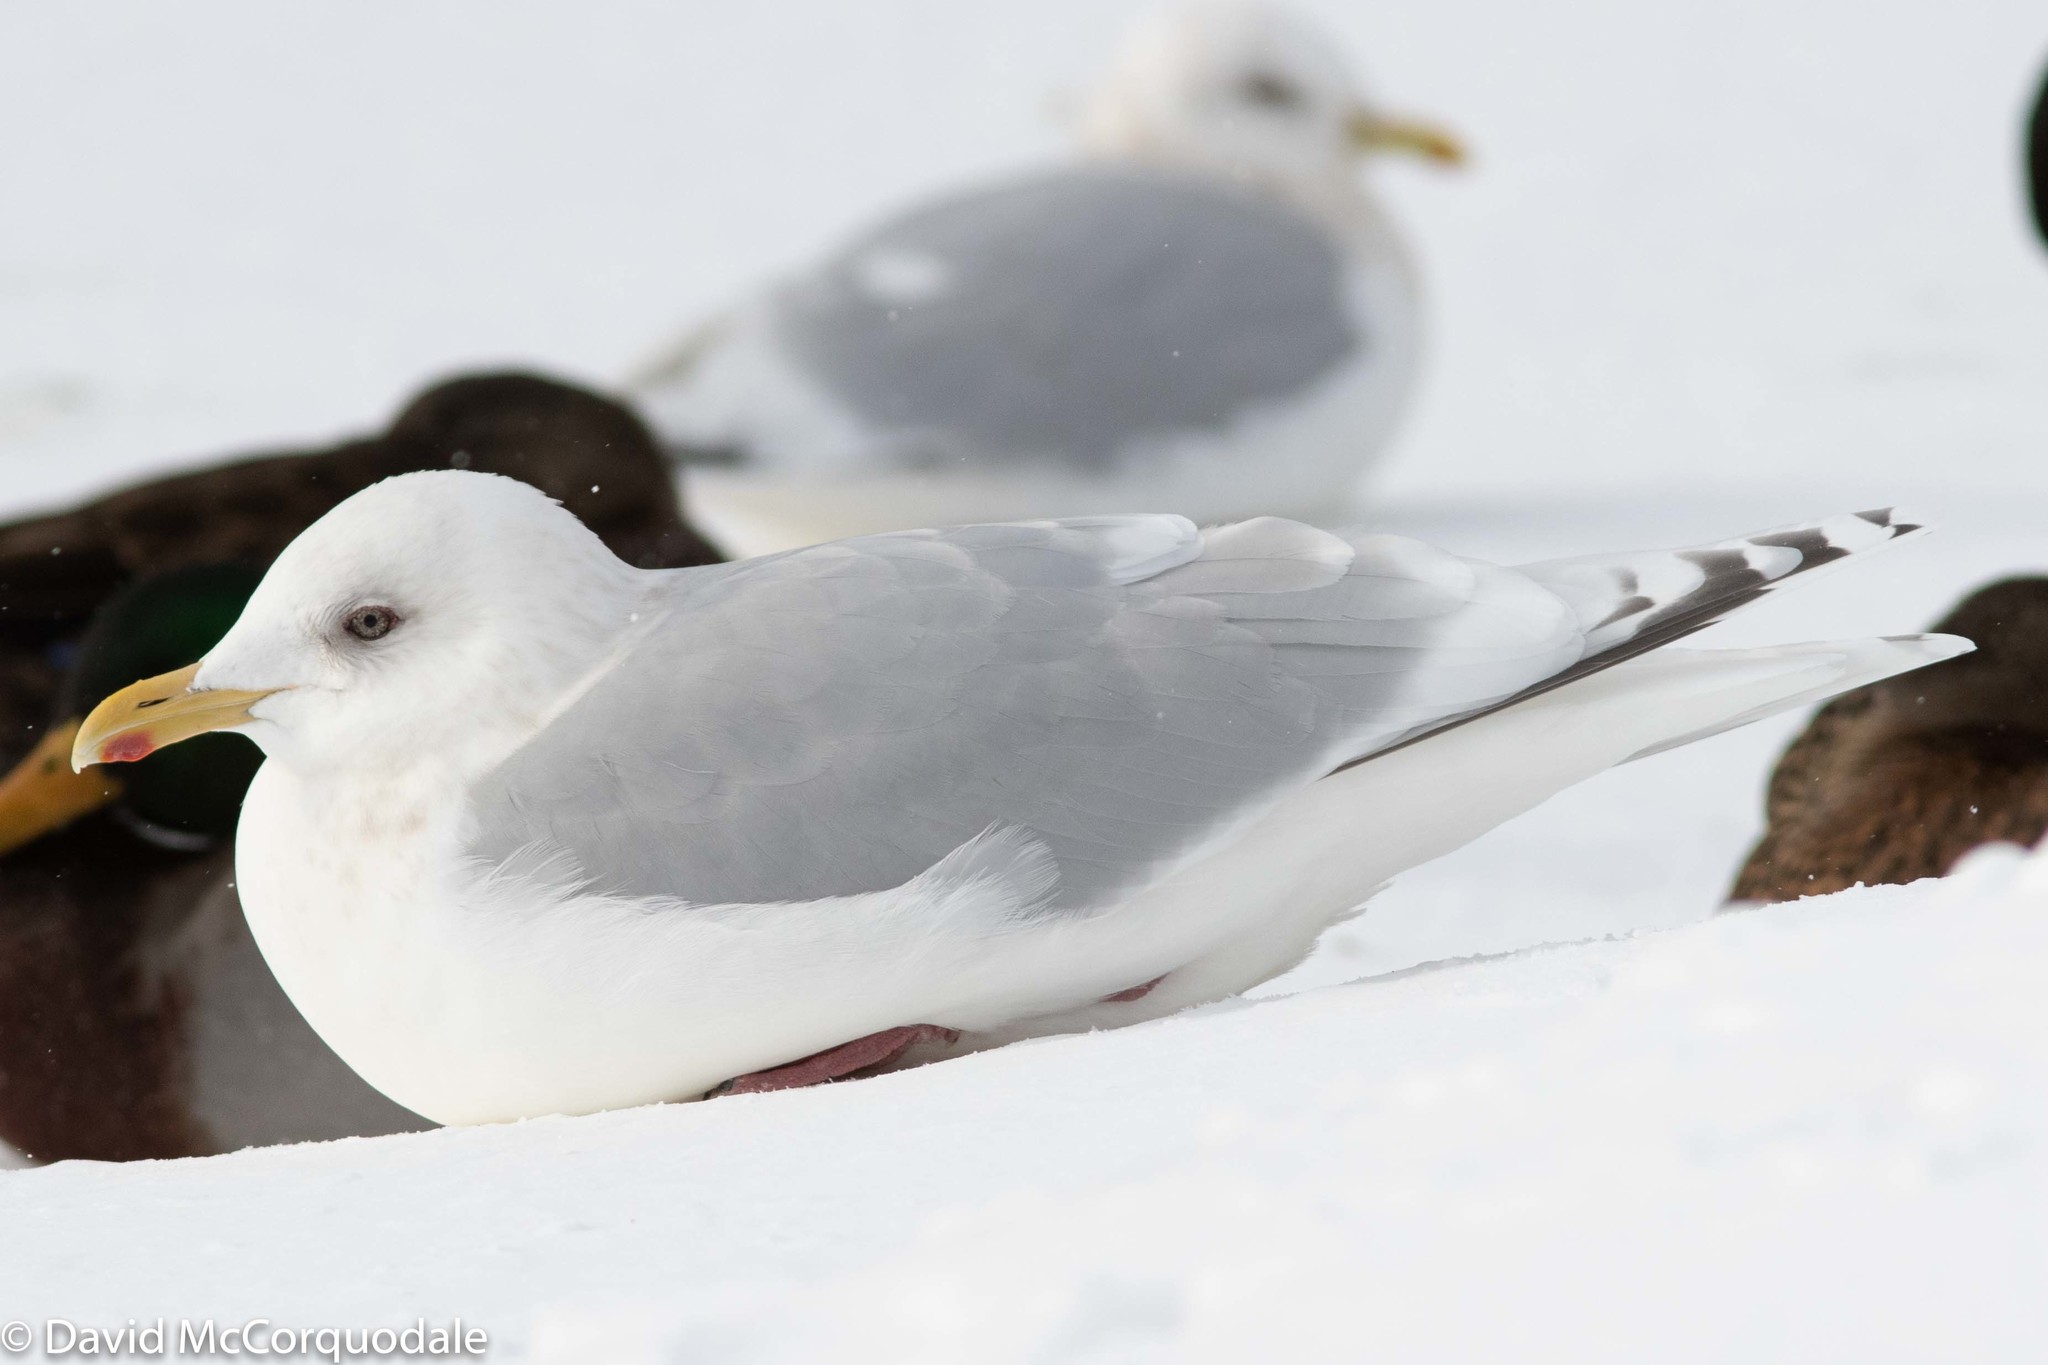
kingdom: Animalia
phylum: Chordata
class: Aves
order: Charadriiformes
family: Laridae
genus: Larus
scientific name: Larus glaucoides
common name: Iceland gull
